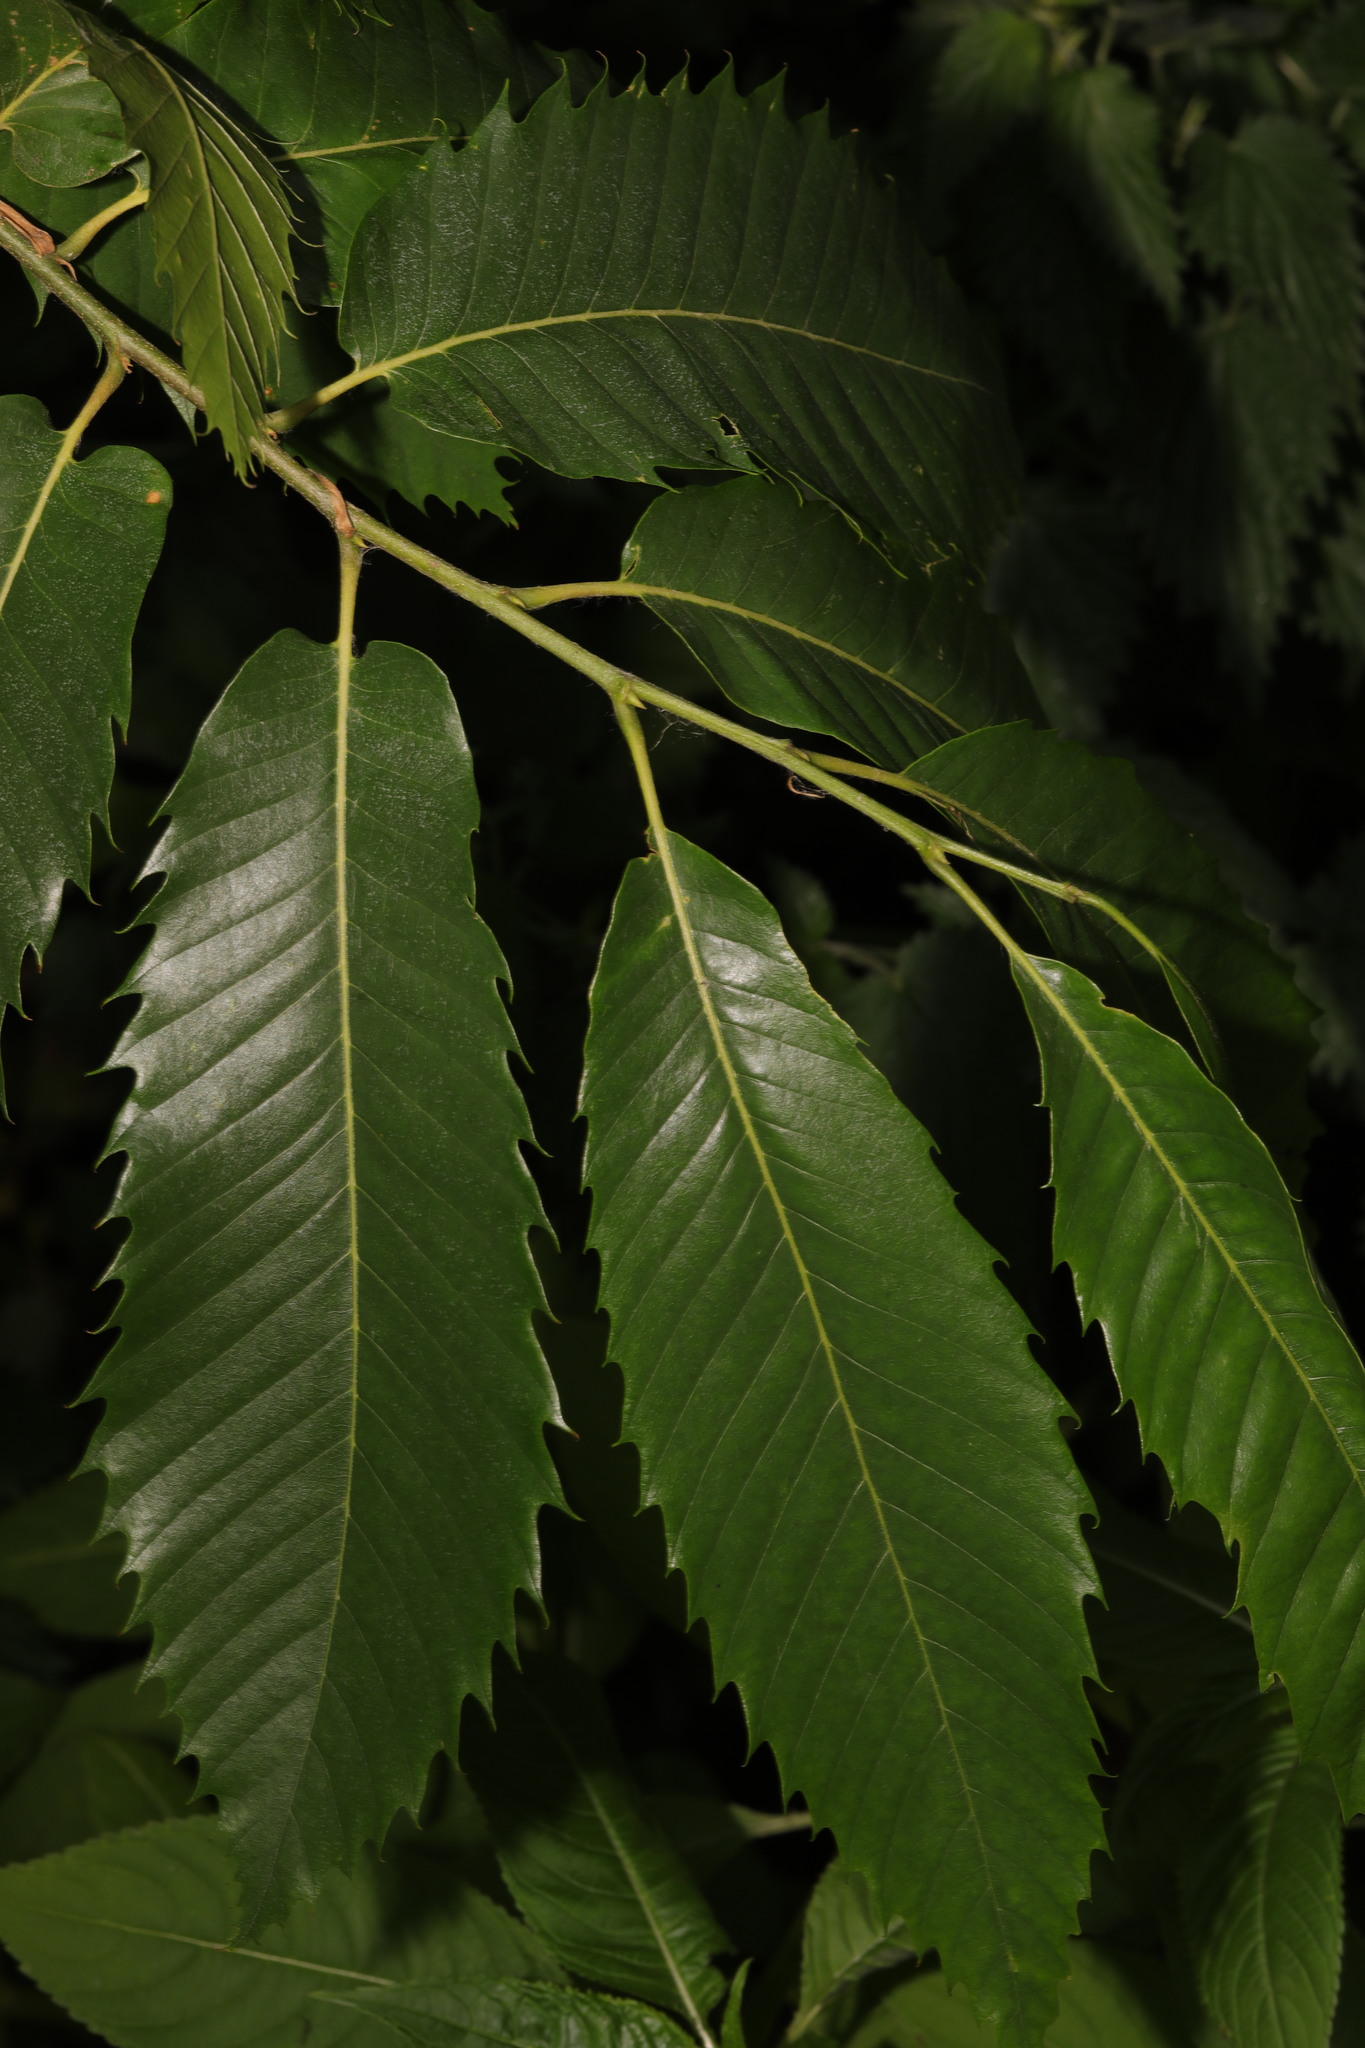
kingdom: Plantae
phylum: Tracheophyta
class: Magnoliopsida
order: Fagales
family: Fagaceae
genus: Castanea
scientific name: Castanea sativa
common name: Sweet chestnut
